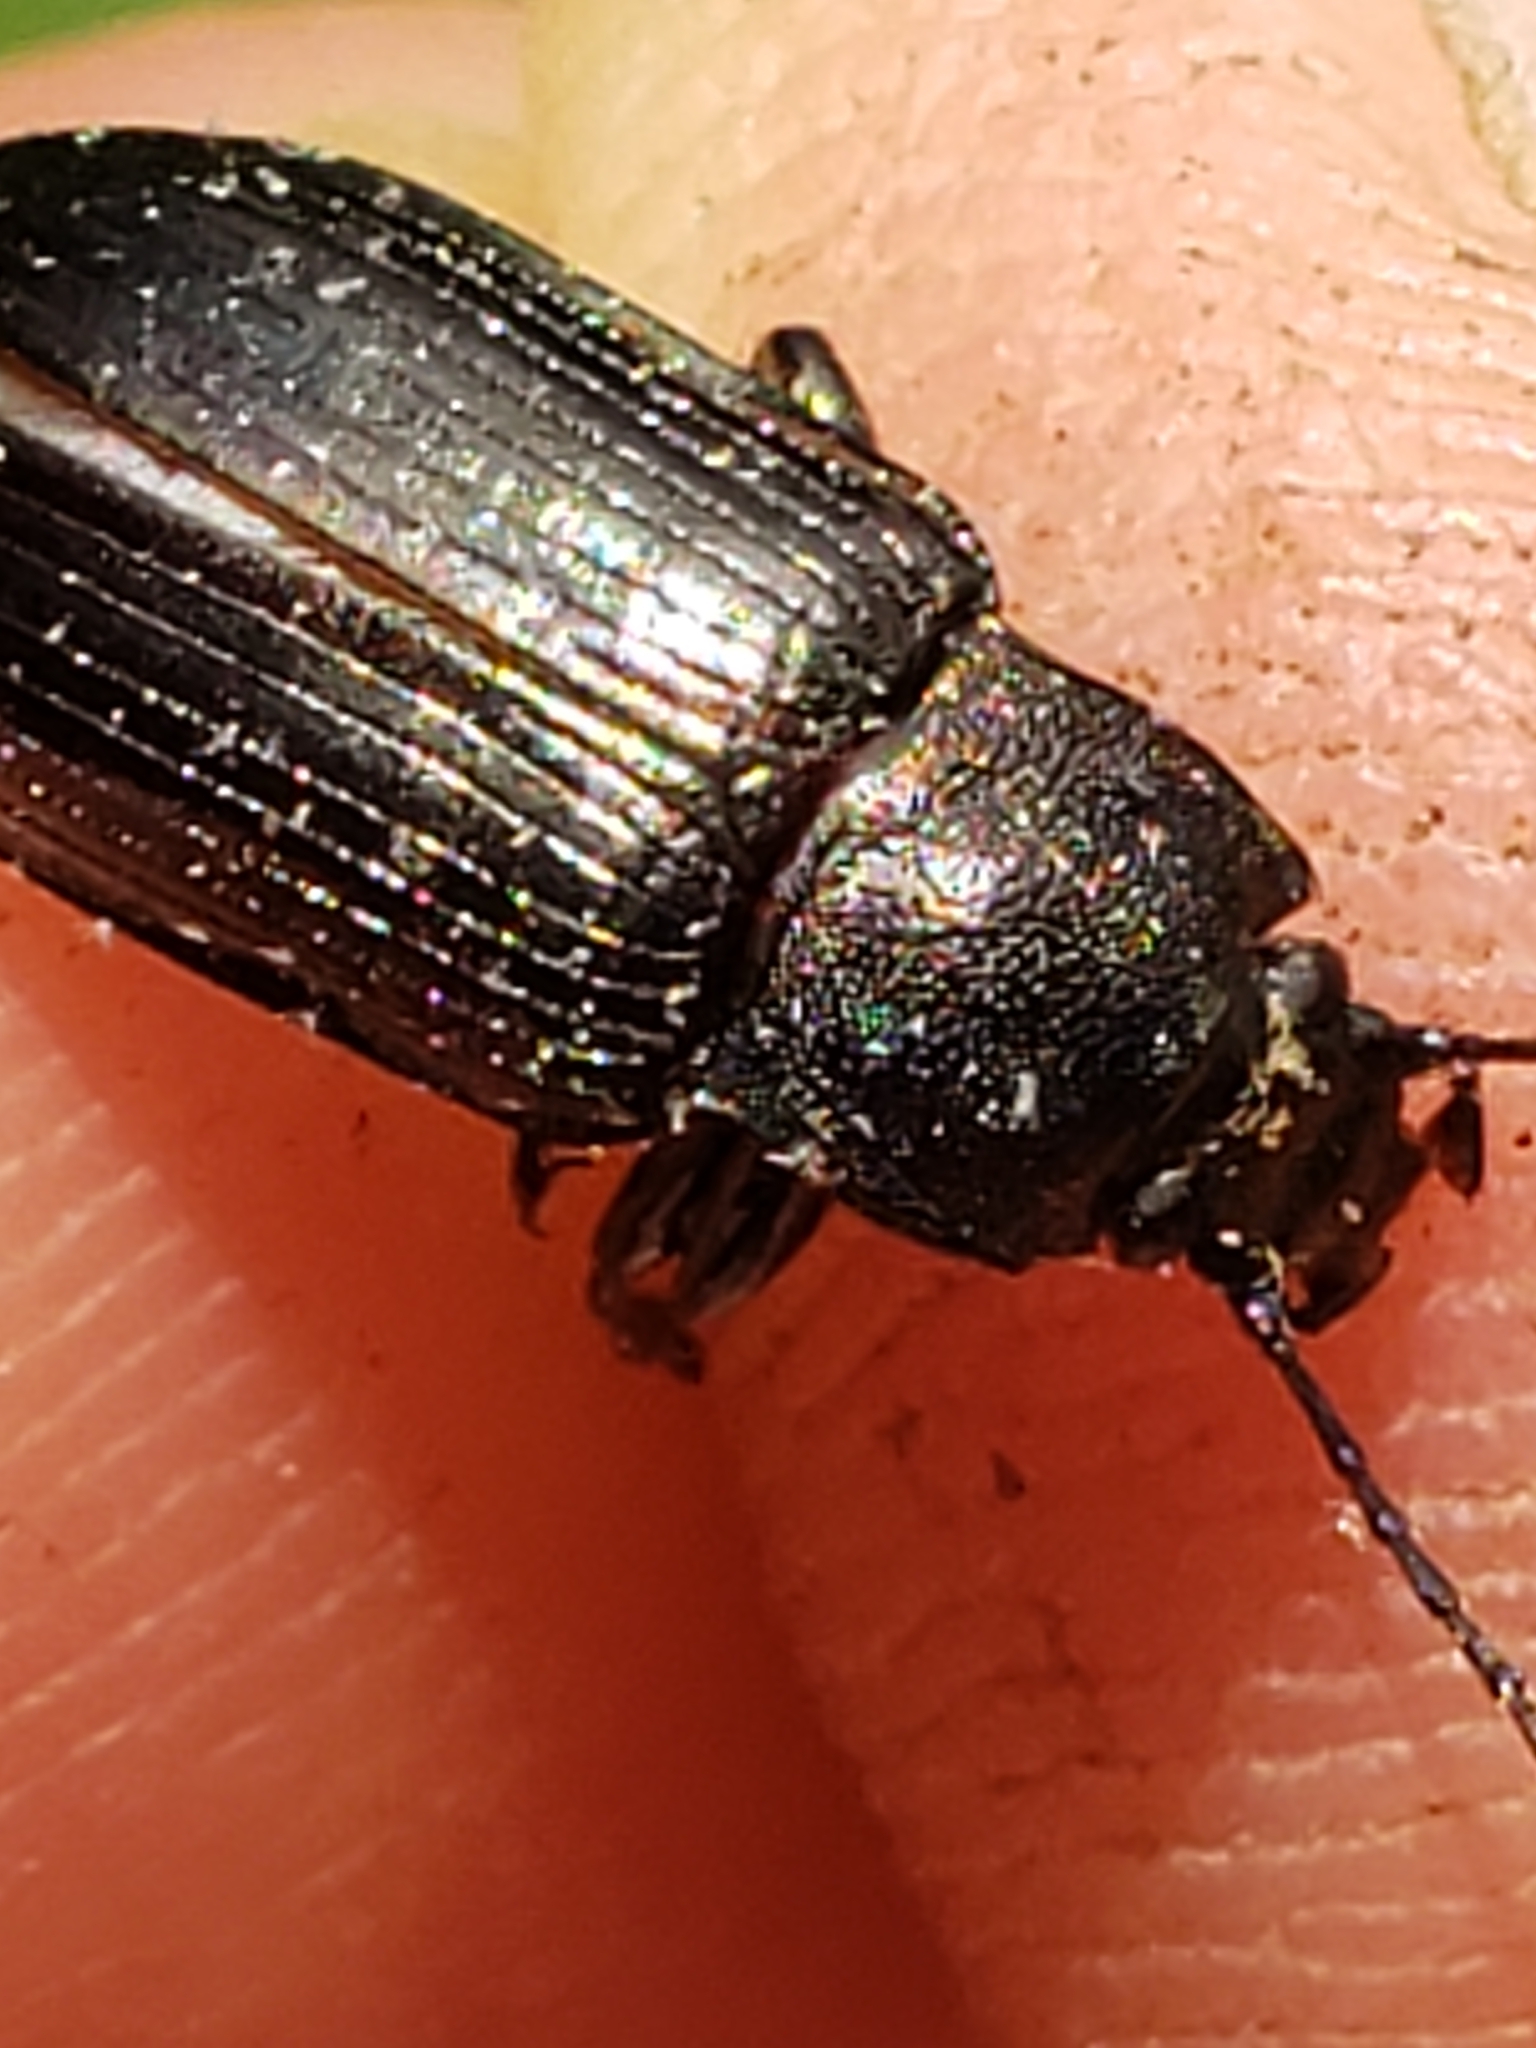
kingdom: Animalia
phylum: Arthropoda
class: Insecta
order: Coleoptera
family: Tenebrionidae
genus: Tarpela
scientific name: Tarpela undulata
